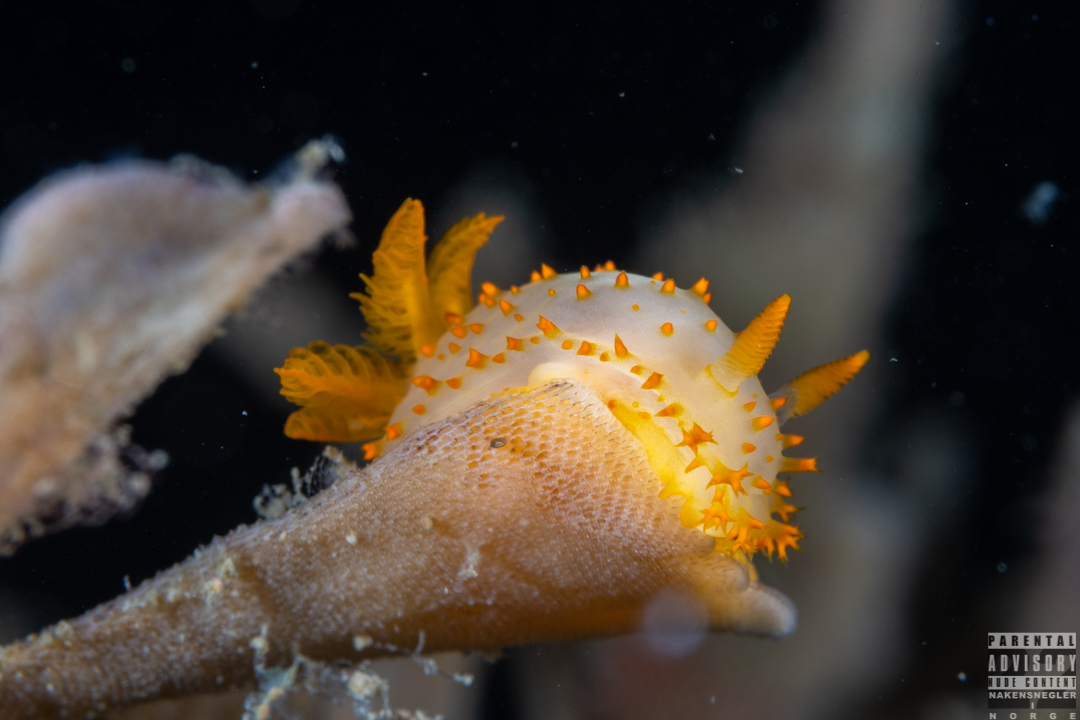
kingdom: Animalia
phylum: Mollusca
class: Gastropoda
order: Nudibranchia
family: Polyceridae
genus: Crimora
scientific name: Crimora papillata
